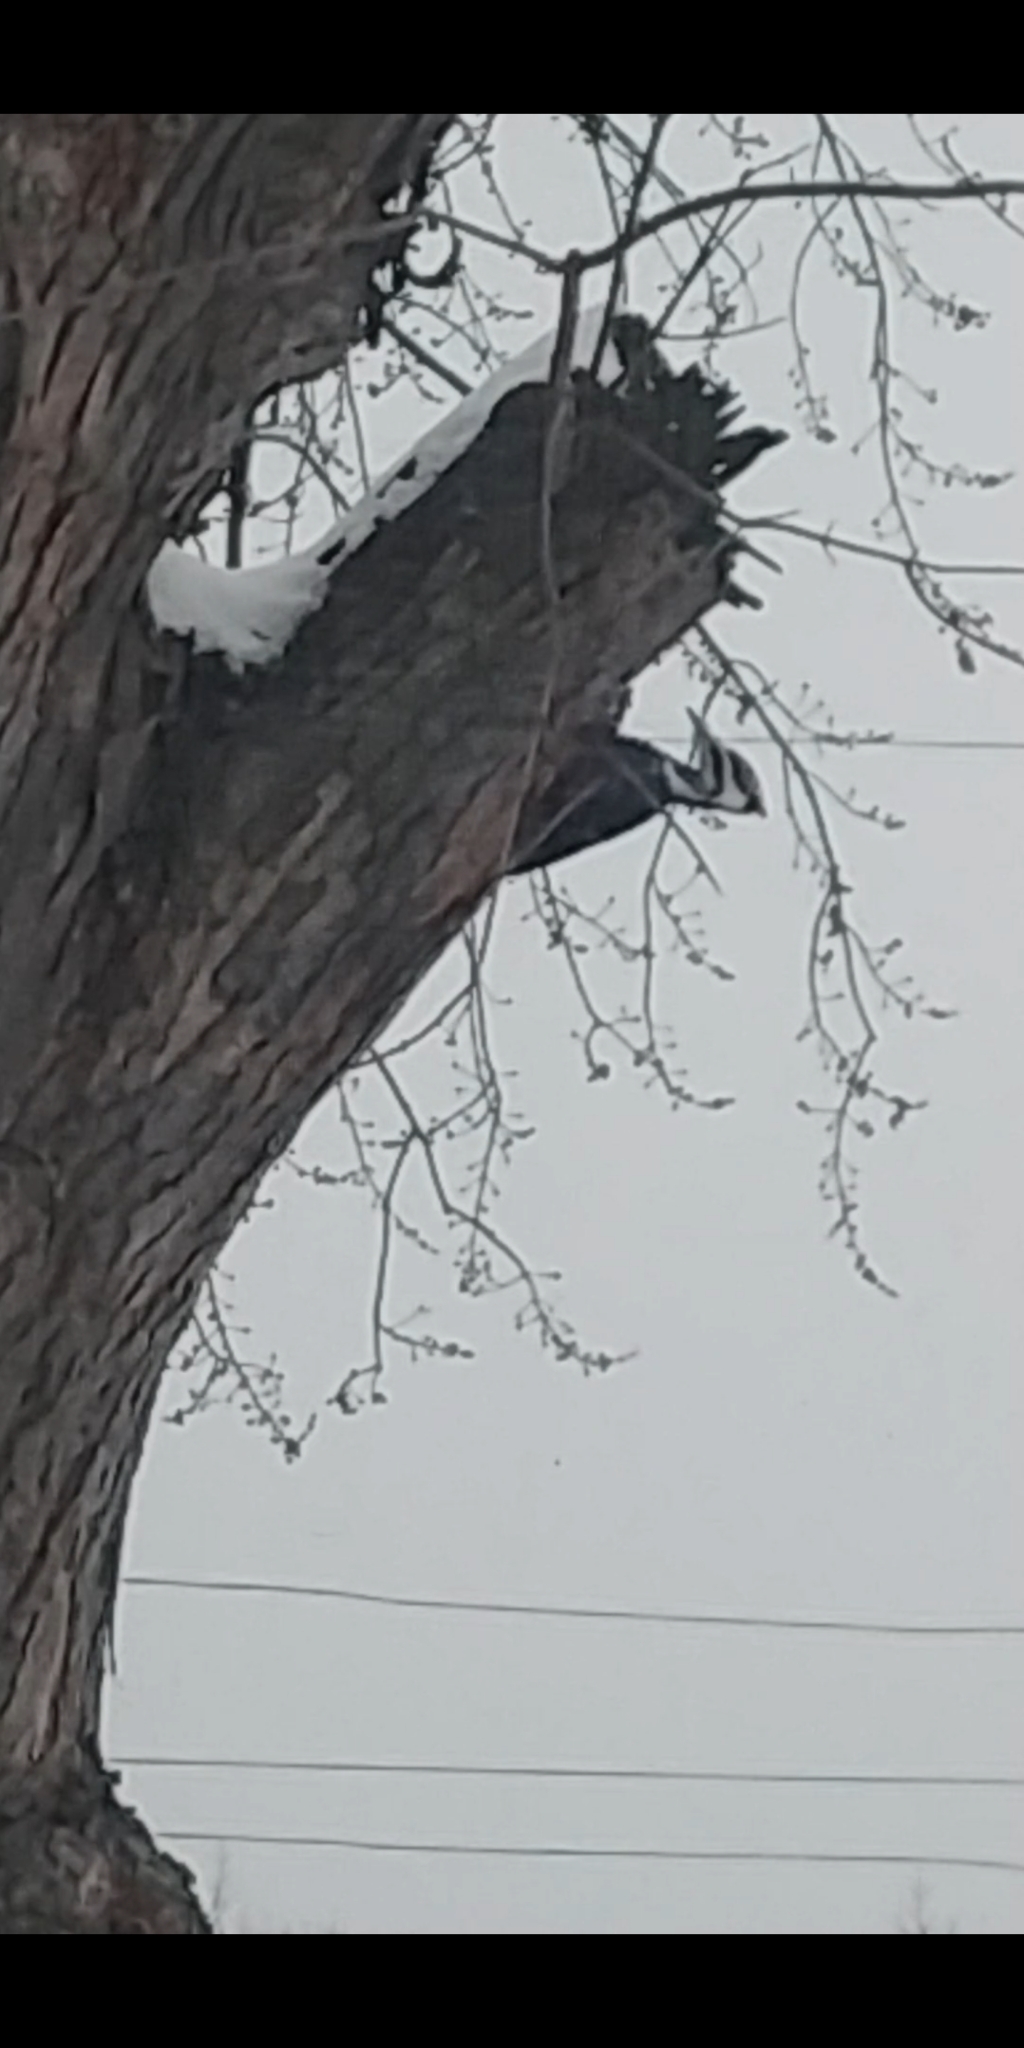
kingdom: Animalia
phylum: Chordata
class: Aves
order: Piciformes
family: Picidae
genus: Dryocopus
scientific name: Dryocopus pileatus
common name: Pileated woodpecker
